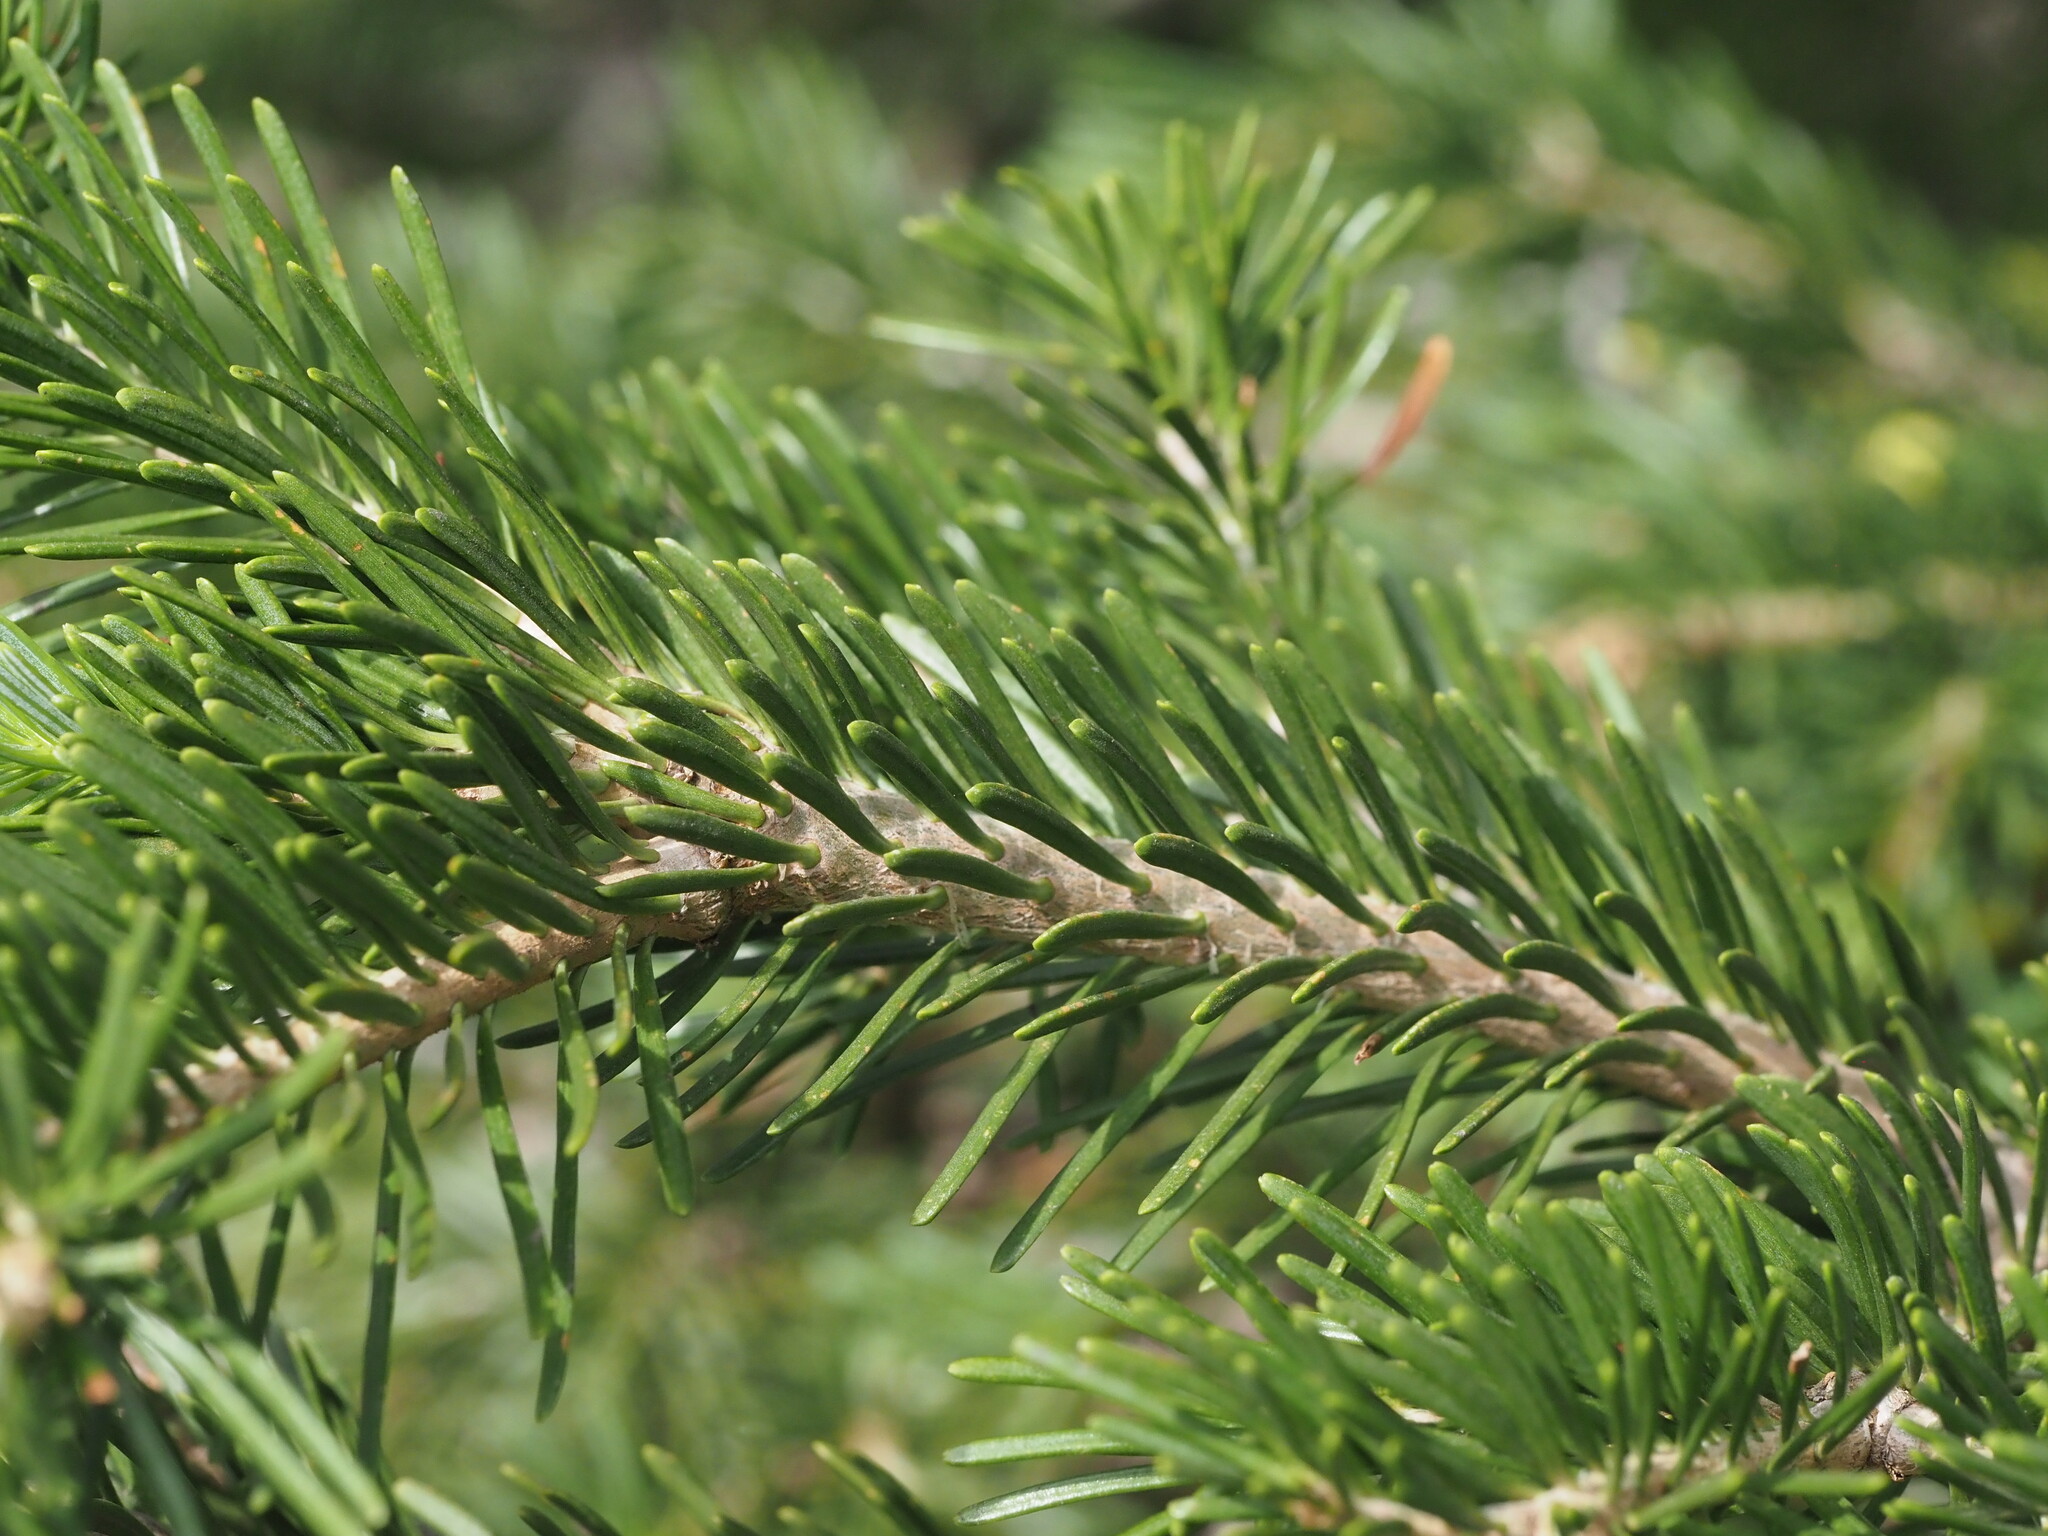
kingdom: Plantae
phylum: Tracheophyta
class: Pinopsida
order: Pinales
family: Pinaceae
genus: Abies
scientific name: Abies lasiocarpa
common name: Subalpine fir
